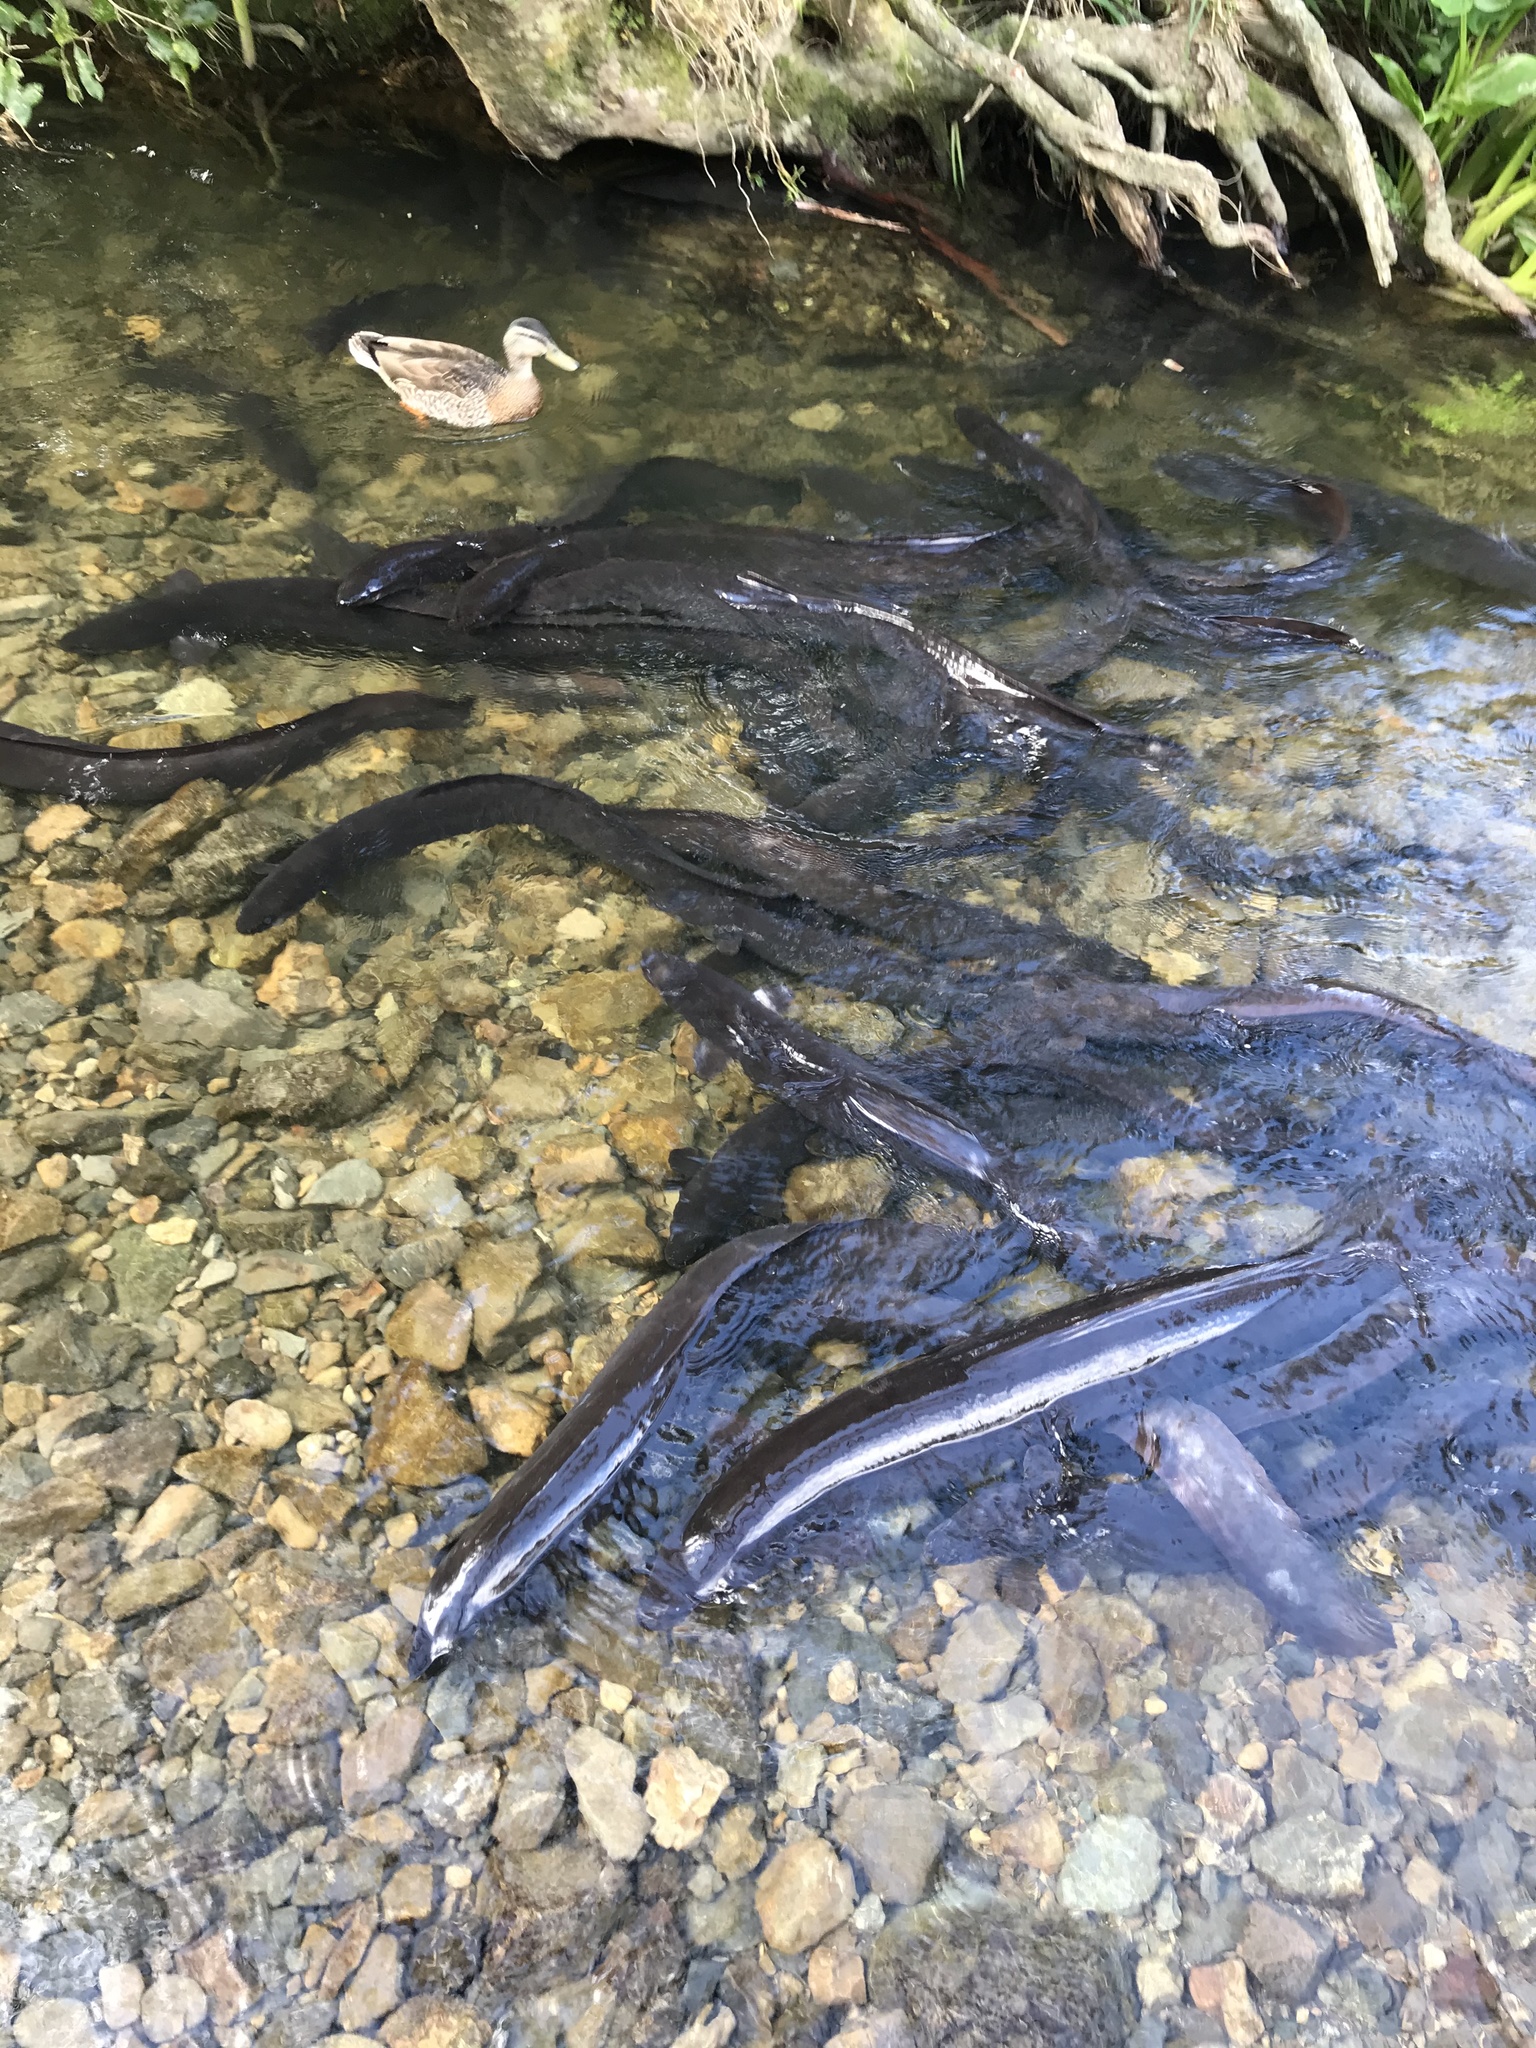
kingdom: Animalia
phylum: Chordata
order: Anguilliformes
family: Anguillidae
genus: Anguilla
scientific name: Anguilla dieffenbachii
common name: New zealand longfin eel
